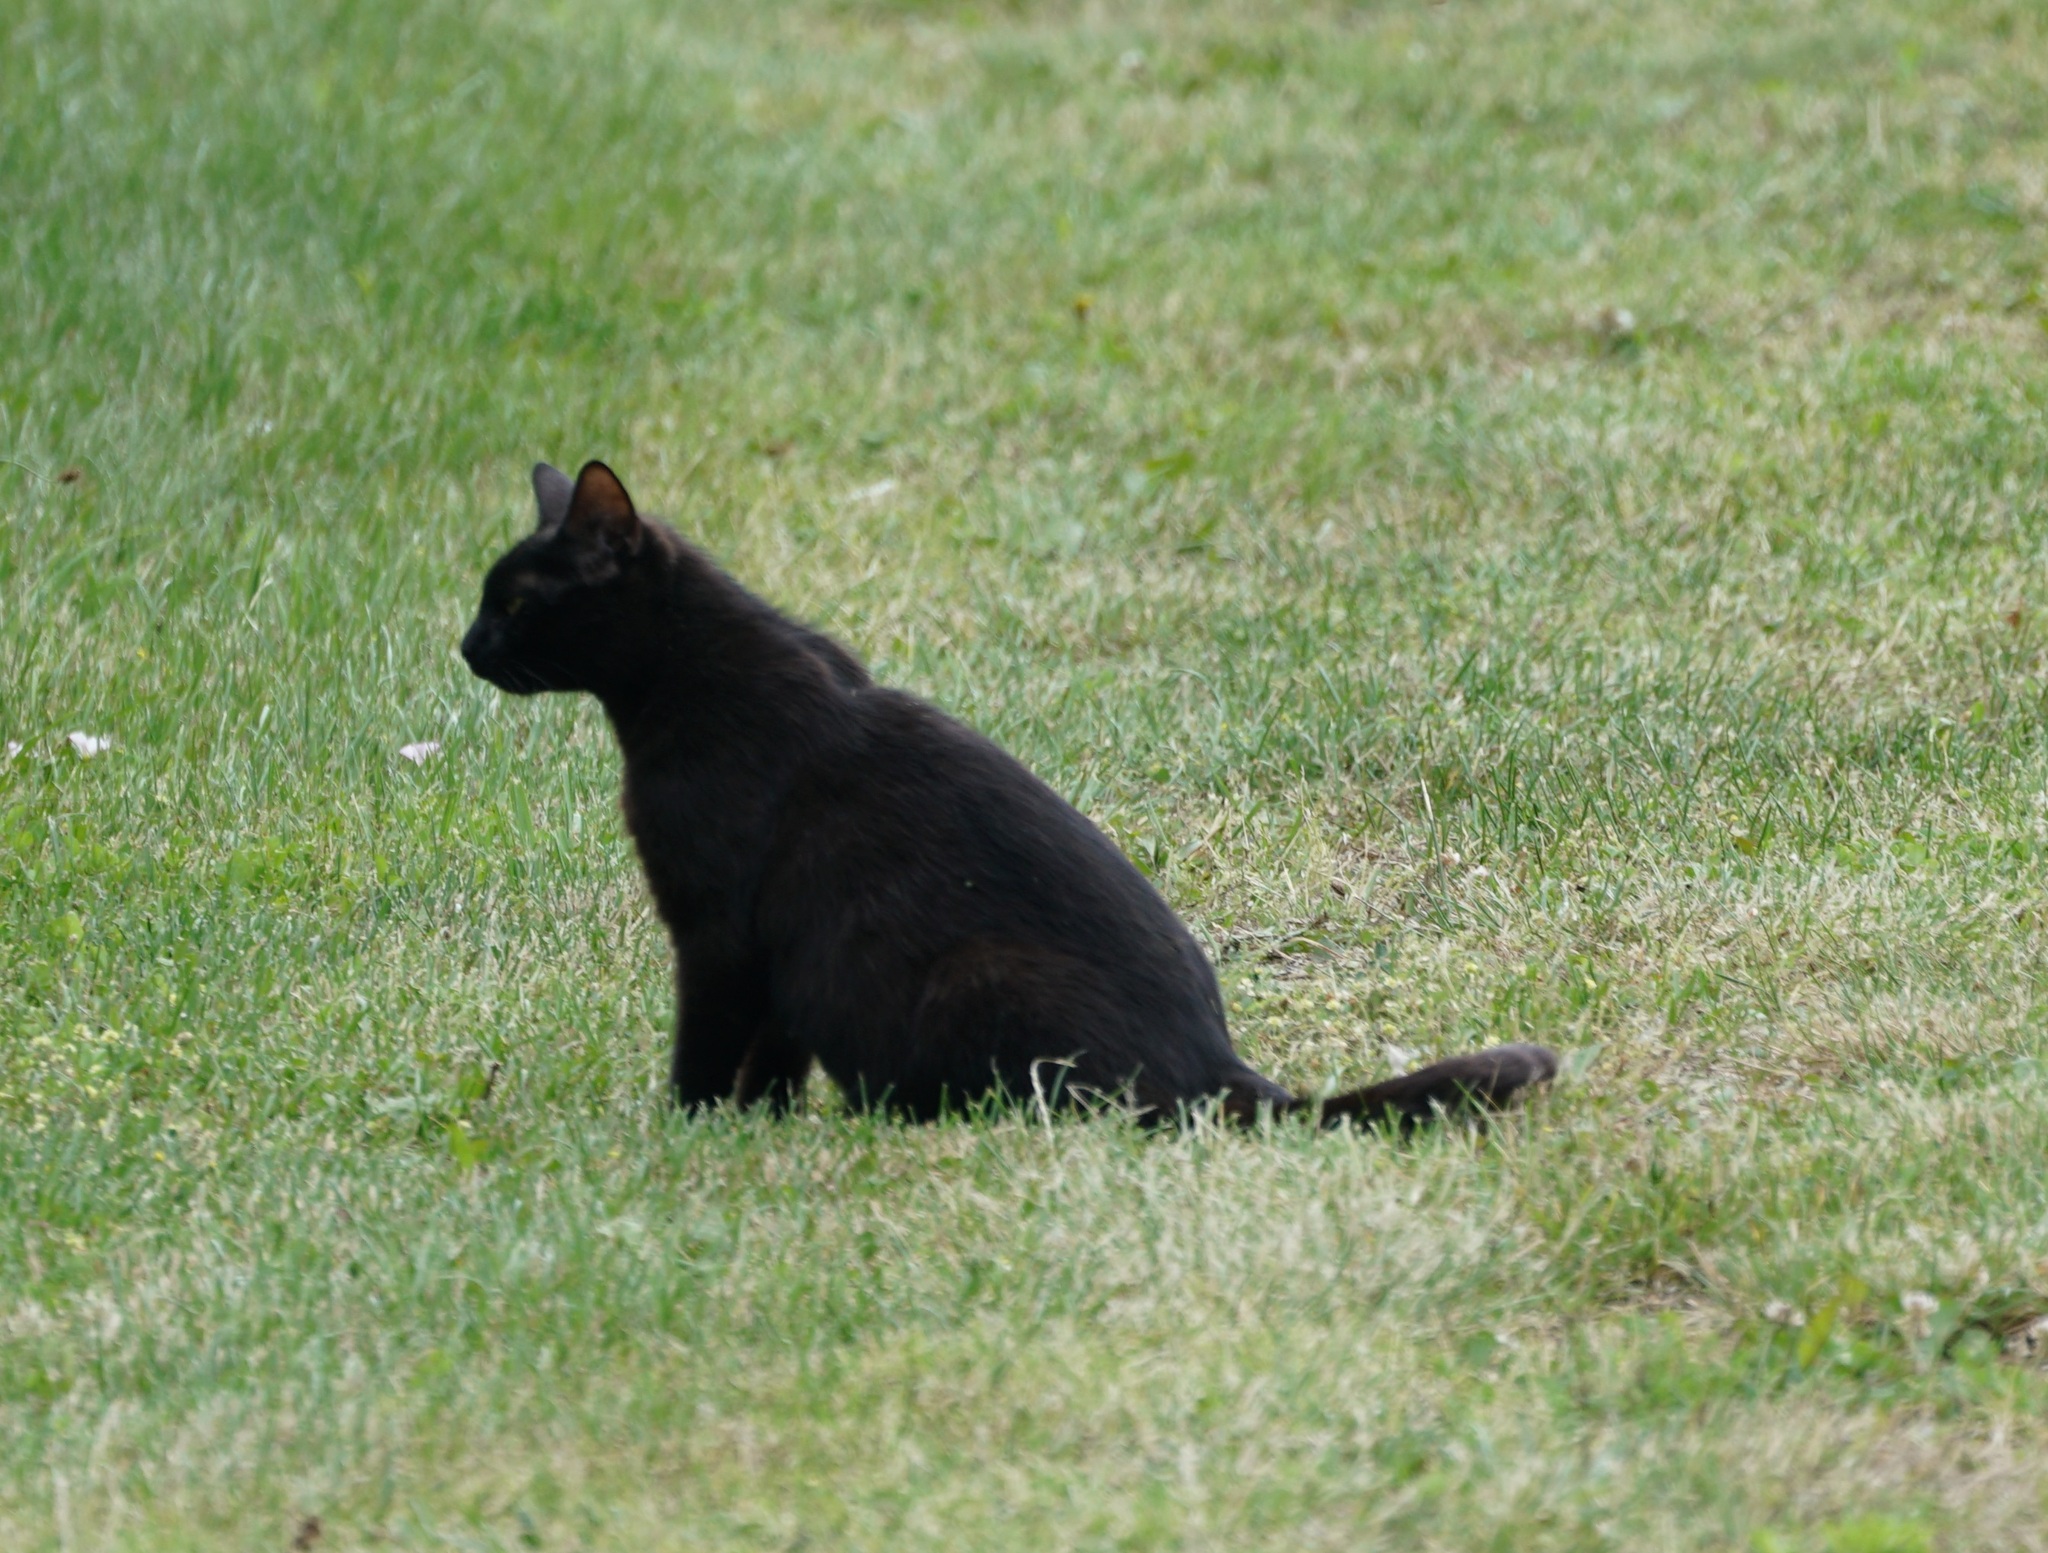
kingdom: Animalia
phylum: Chordata
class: Mammalia
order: Carnivora
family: Felidae
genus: Felis
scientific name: Felis catus
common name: Domestic cat
